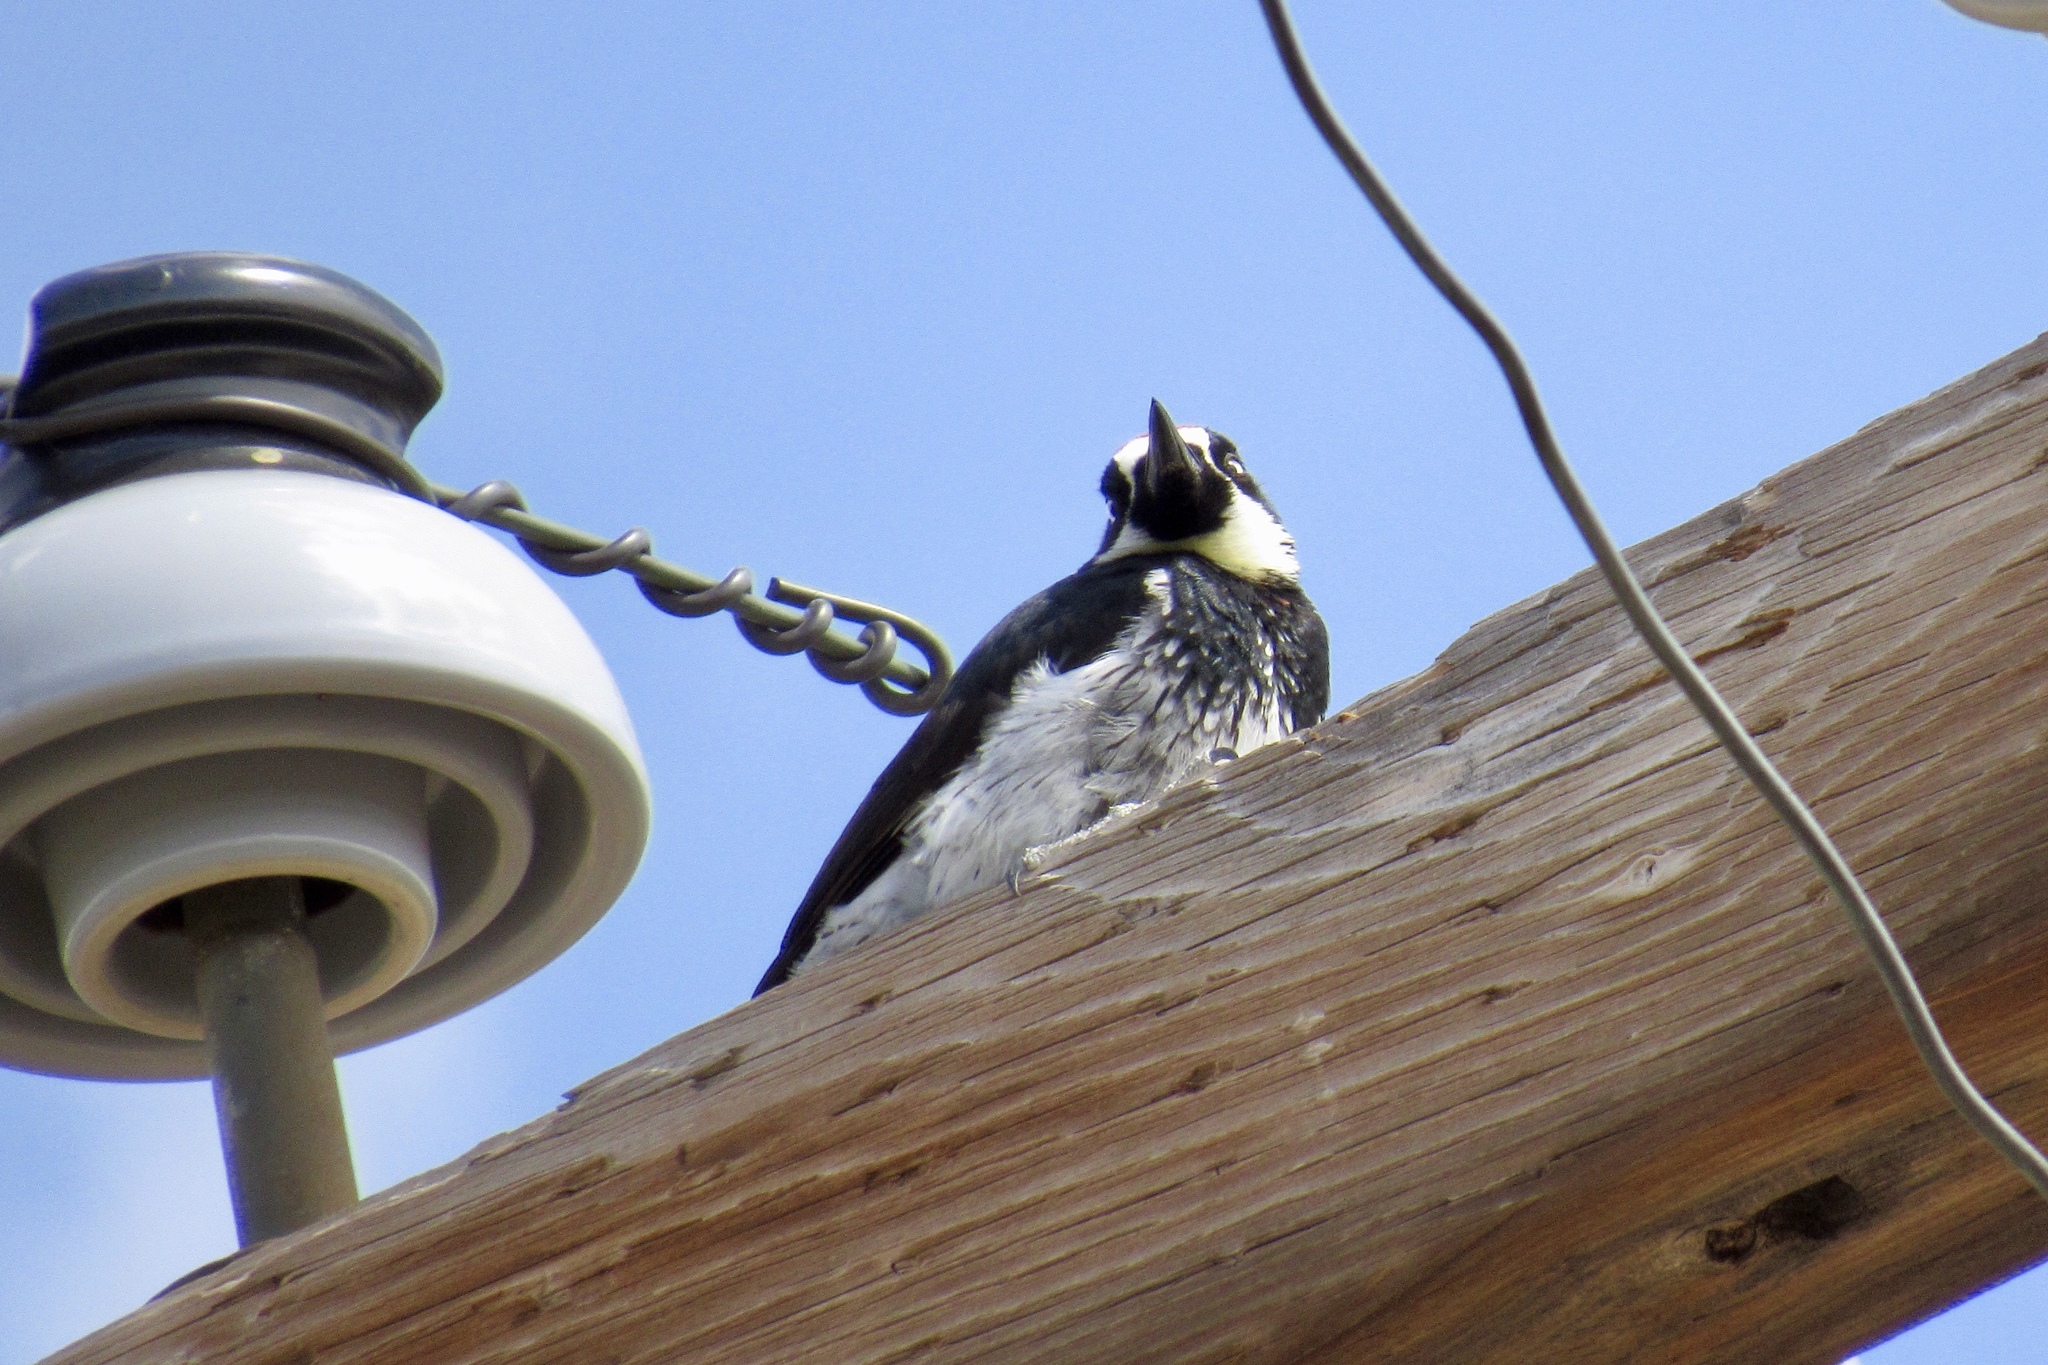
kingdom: Animalia
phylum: Chordata
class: Aves
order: Piciformes
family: Picidae
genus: Melanerpes
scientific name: Melanerpes formicivorus
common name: Acorn woodpecker
